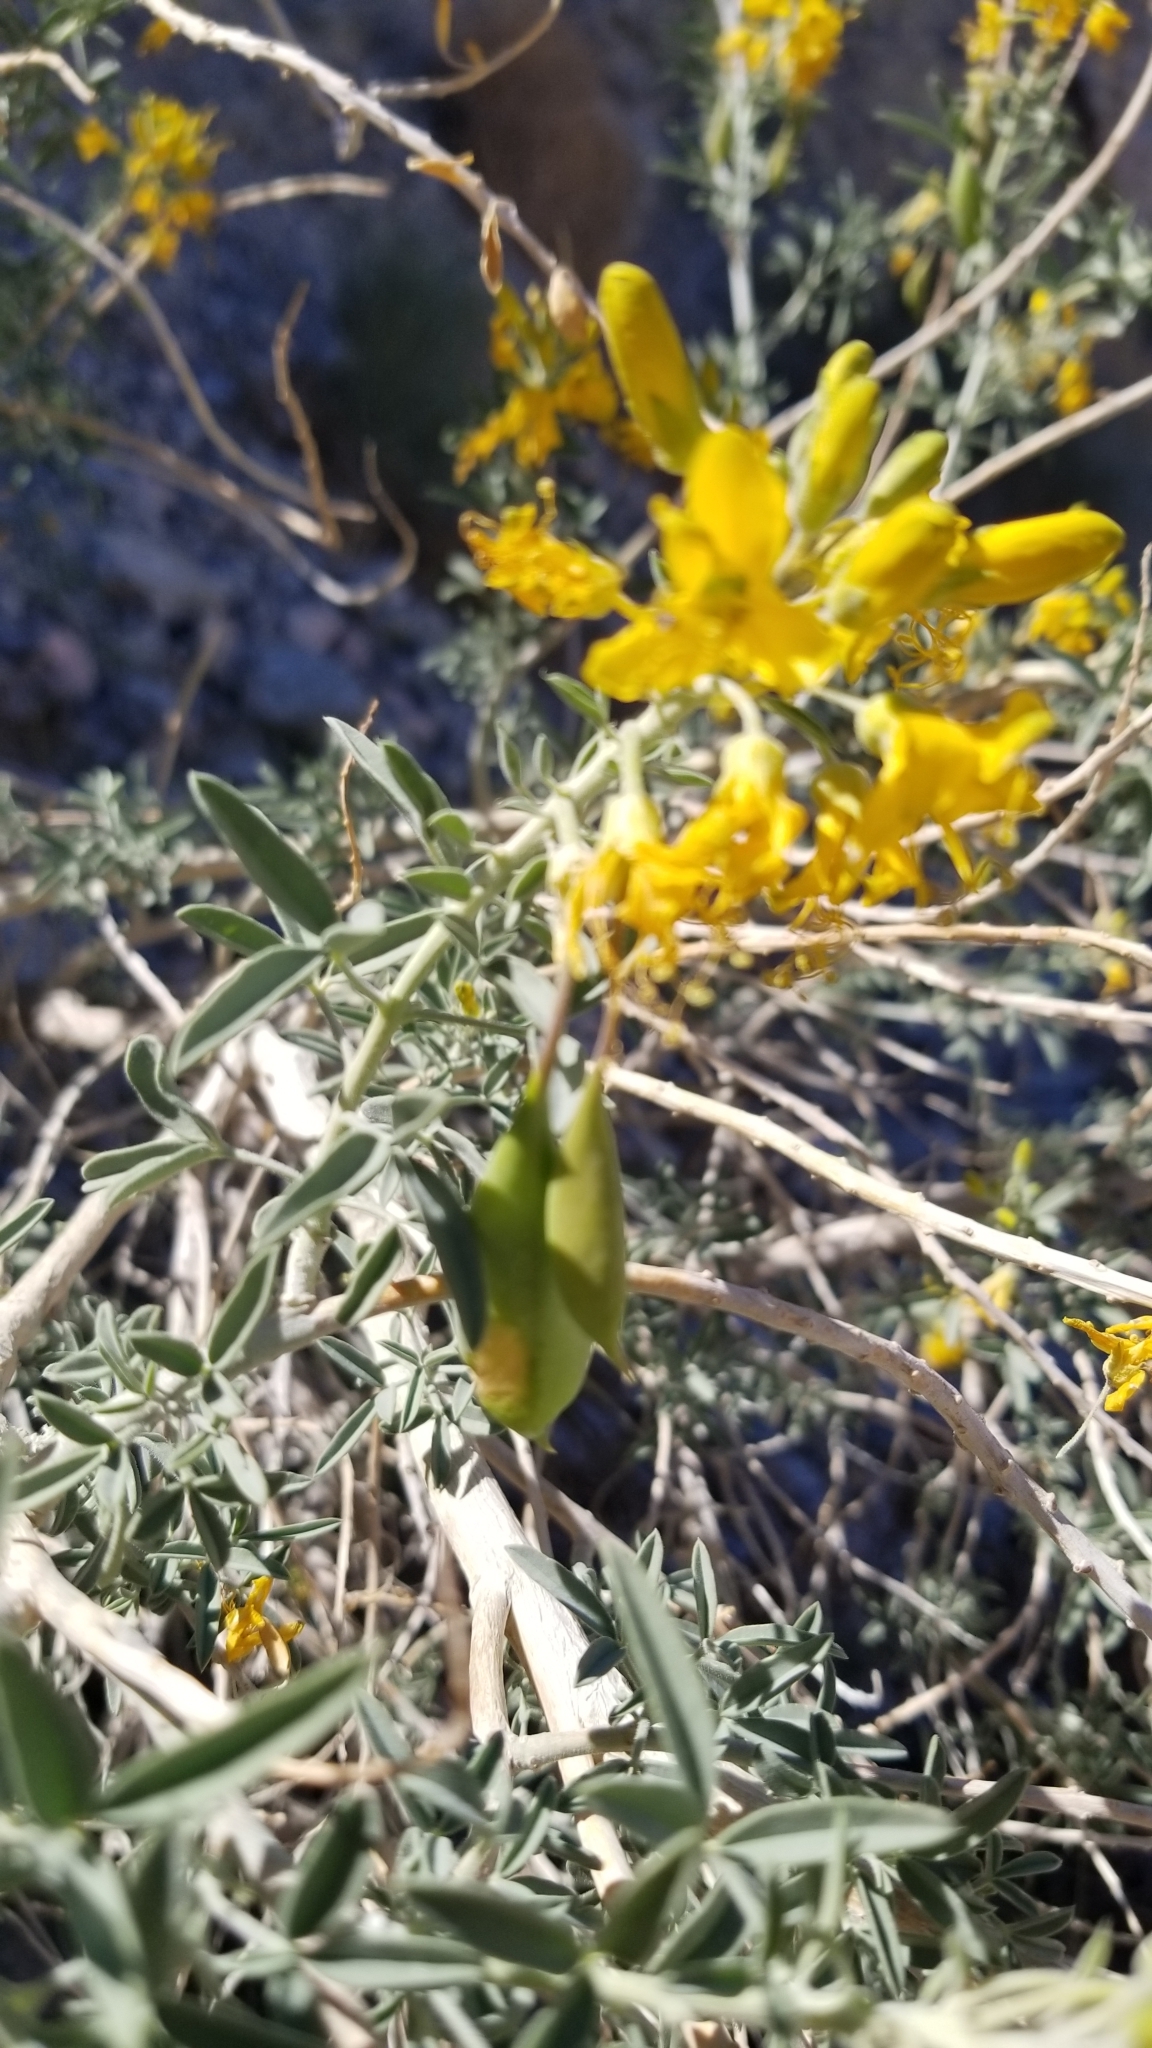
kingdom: Plantae
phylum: Tracheophyta
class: Magnoliopsida
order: Brassicales
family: Cleomaceae
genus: Cleomella
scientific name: Cleomella arborea
